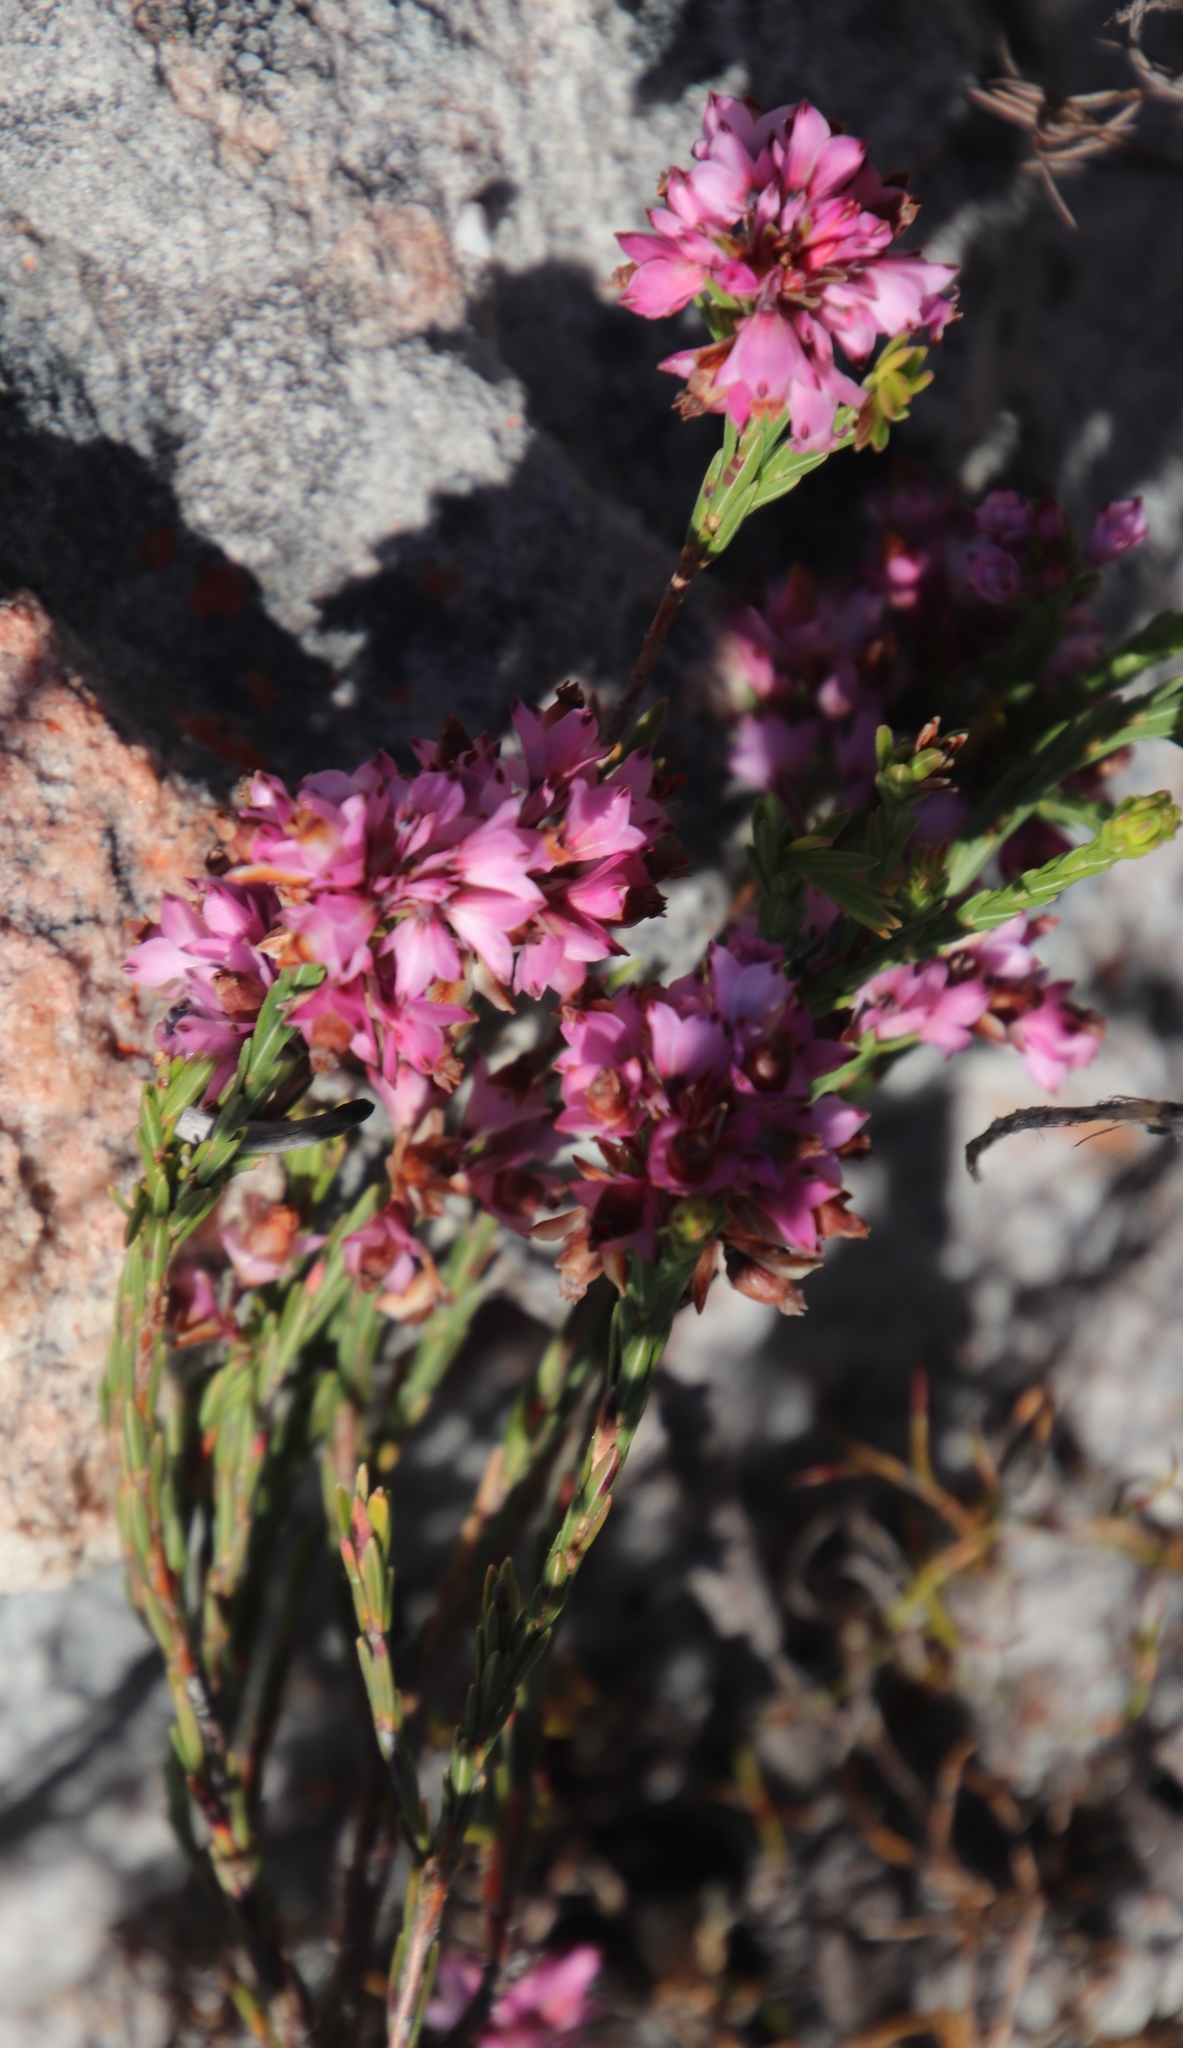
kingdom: Plantae
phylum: Tracheophyta
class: Magnoliopsida
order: Ericales
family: Ericaceae
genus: Erica
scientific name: Erica corifolia
